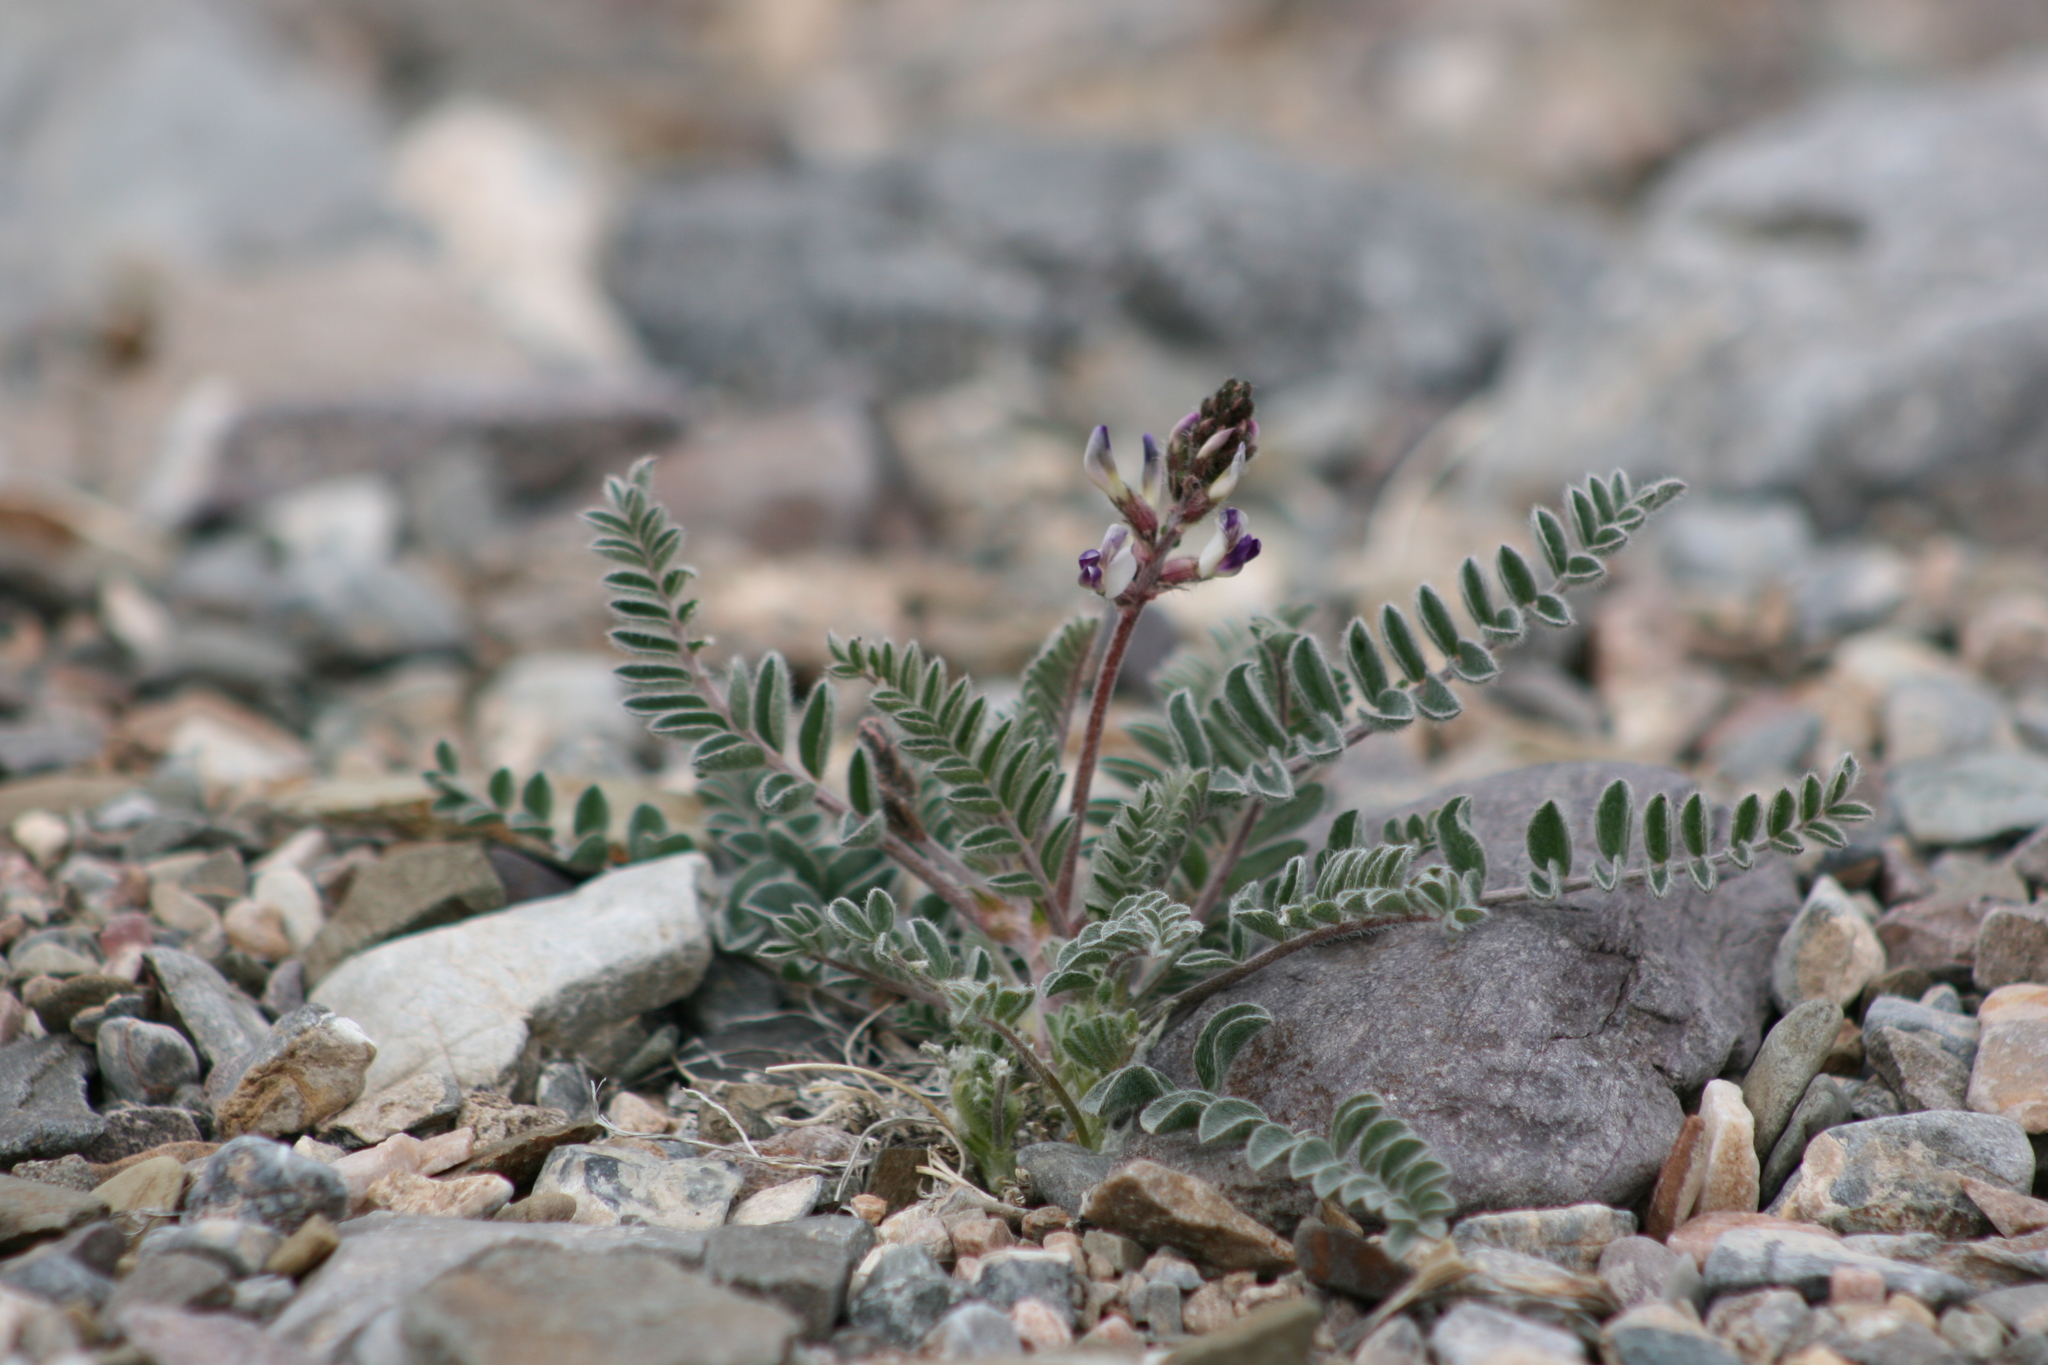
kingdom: Plantae
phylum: Tracheophyta
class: Magnoliopsida
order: Fabales
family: Fabaceae
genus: Astragalus
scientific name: Astragalus layneae
